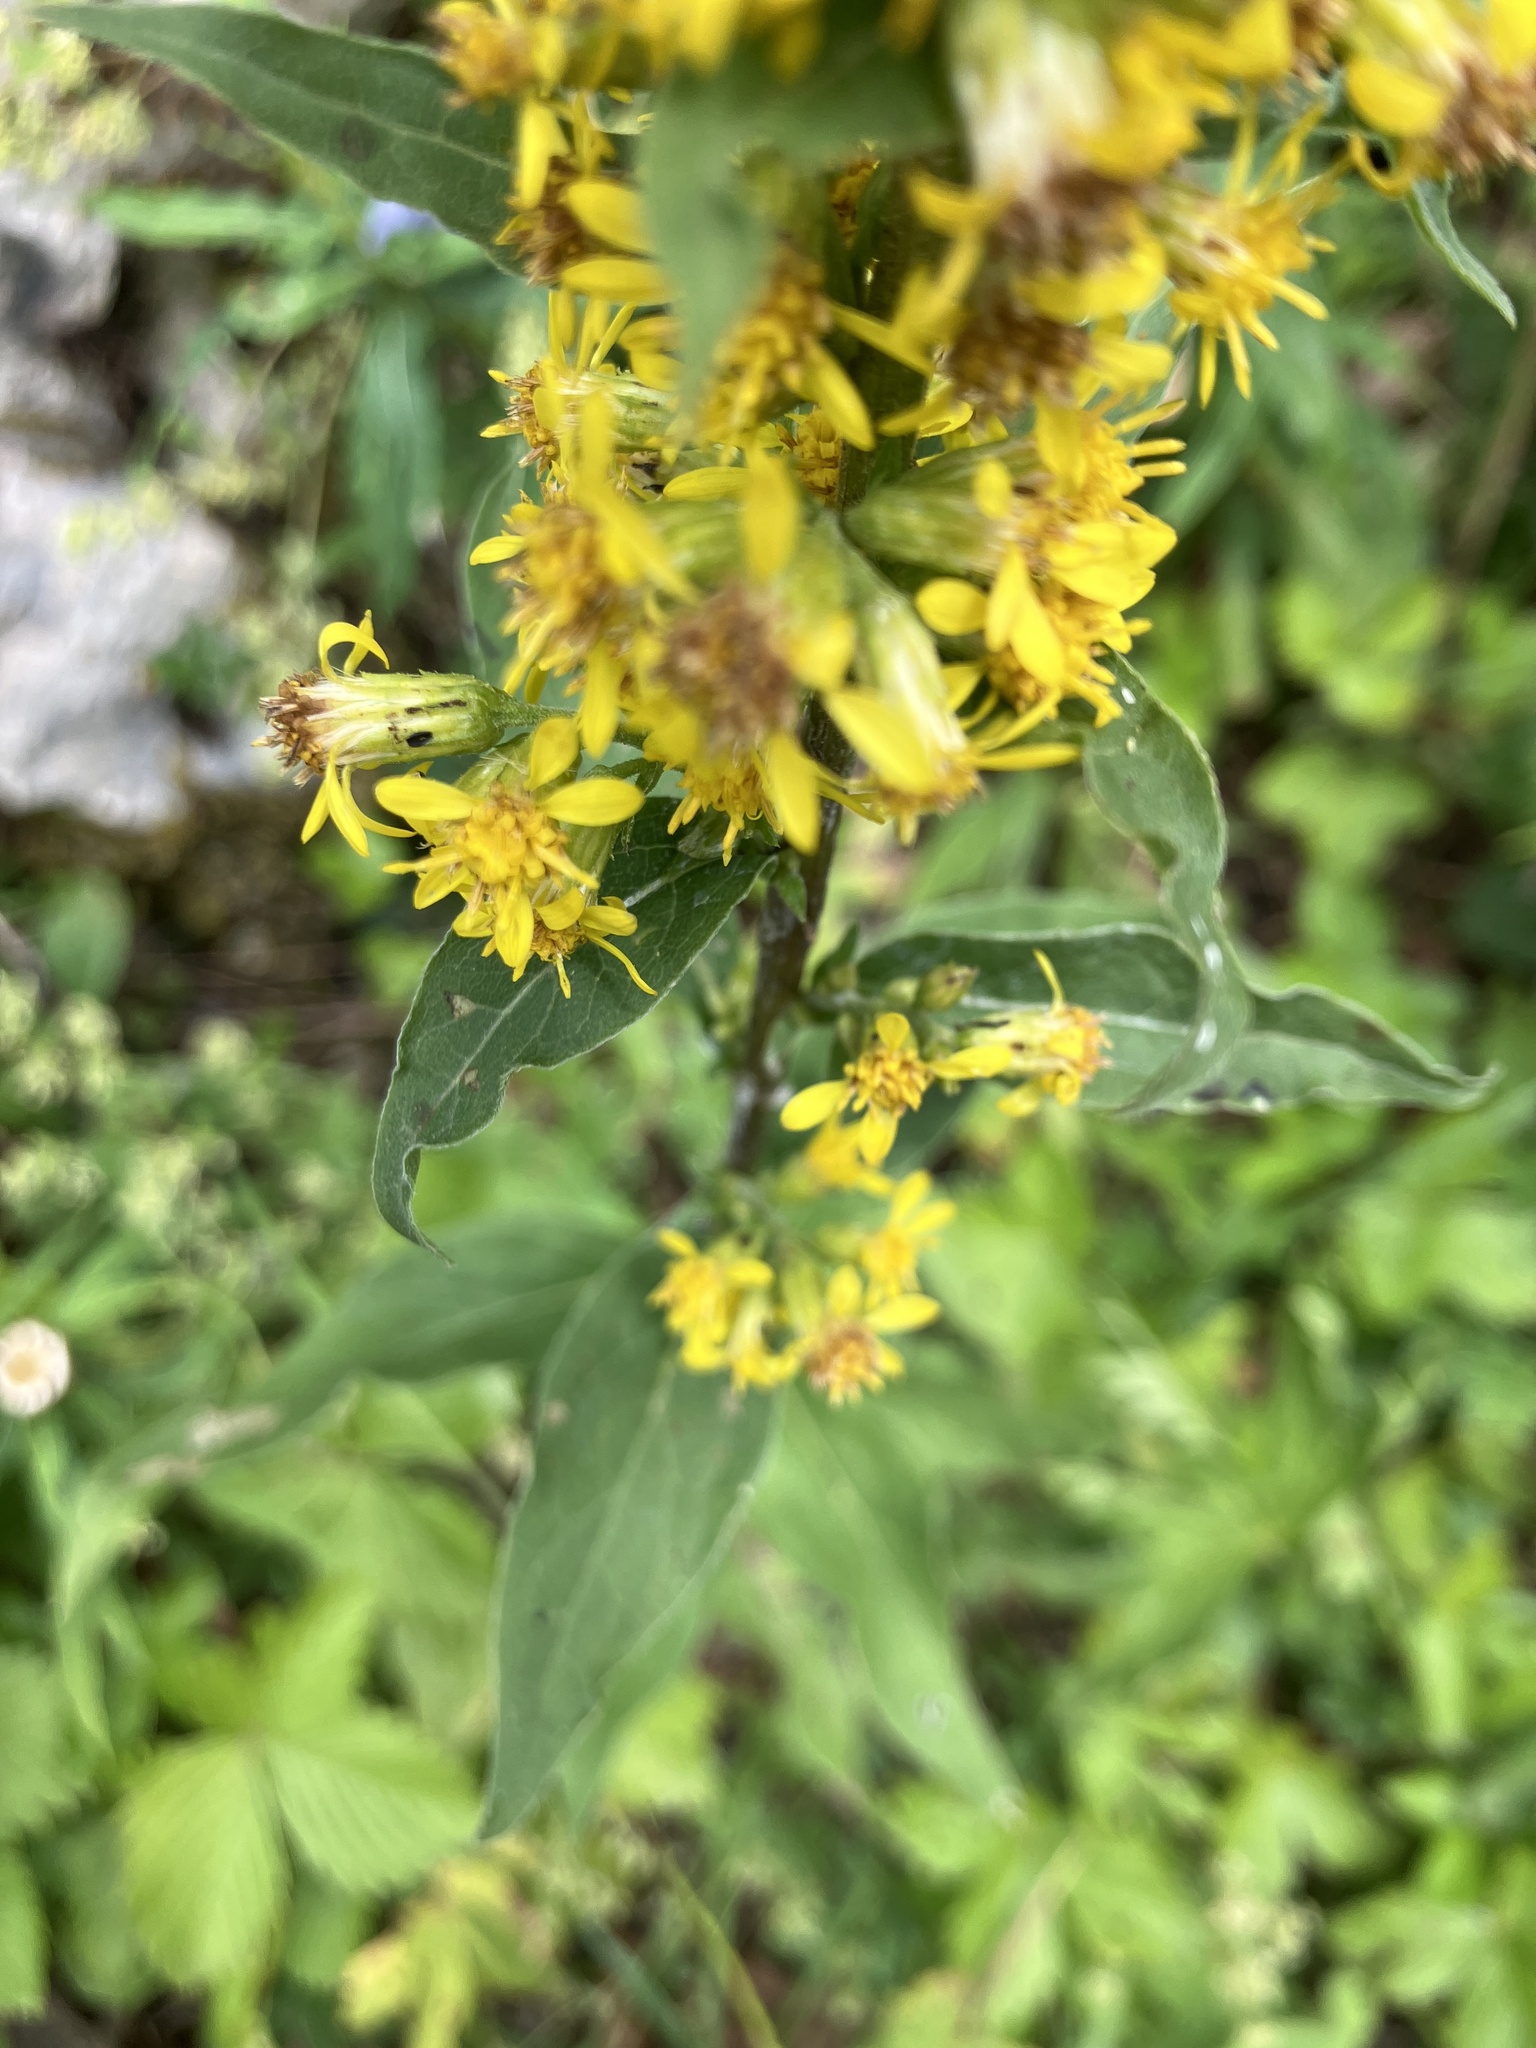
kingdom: Plantae
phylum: Tracheophyta
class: Magnoliopsida
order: Asterales
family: Asteraceae
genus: Solidago
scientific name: Solidago virgaurea
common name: Goldenrod
